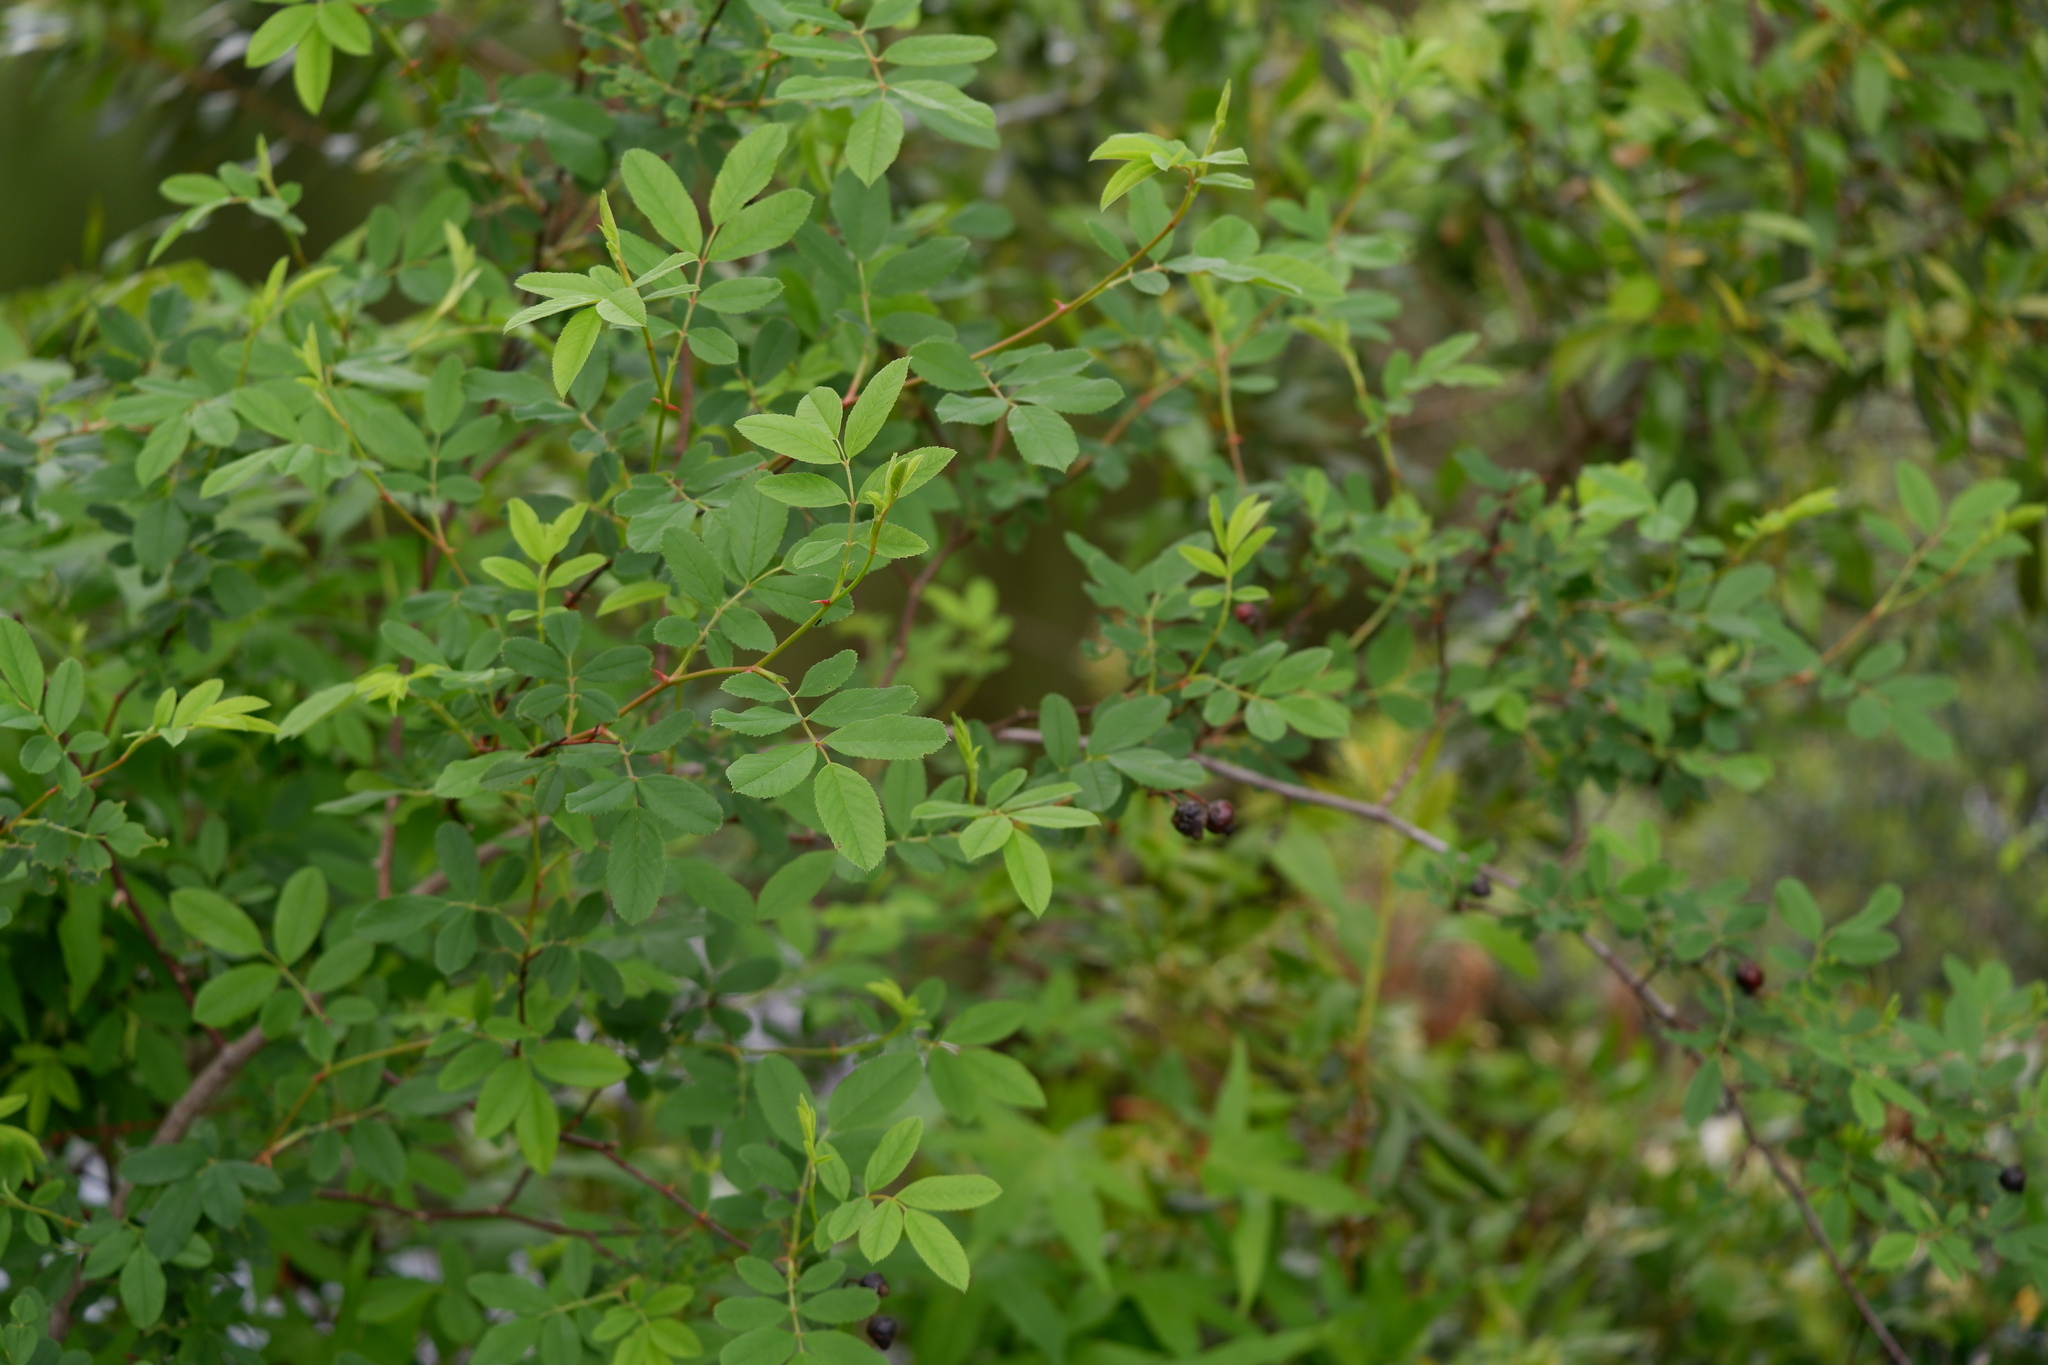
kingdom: Plantae
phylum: Tracheophyta
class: Magnoliopsida
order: Rosales
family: Rosaceae
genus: Rosa
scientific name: Rosa palustris
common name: Swamp rose
